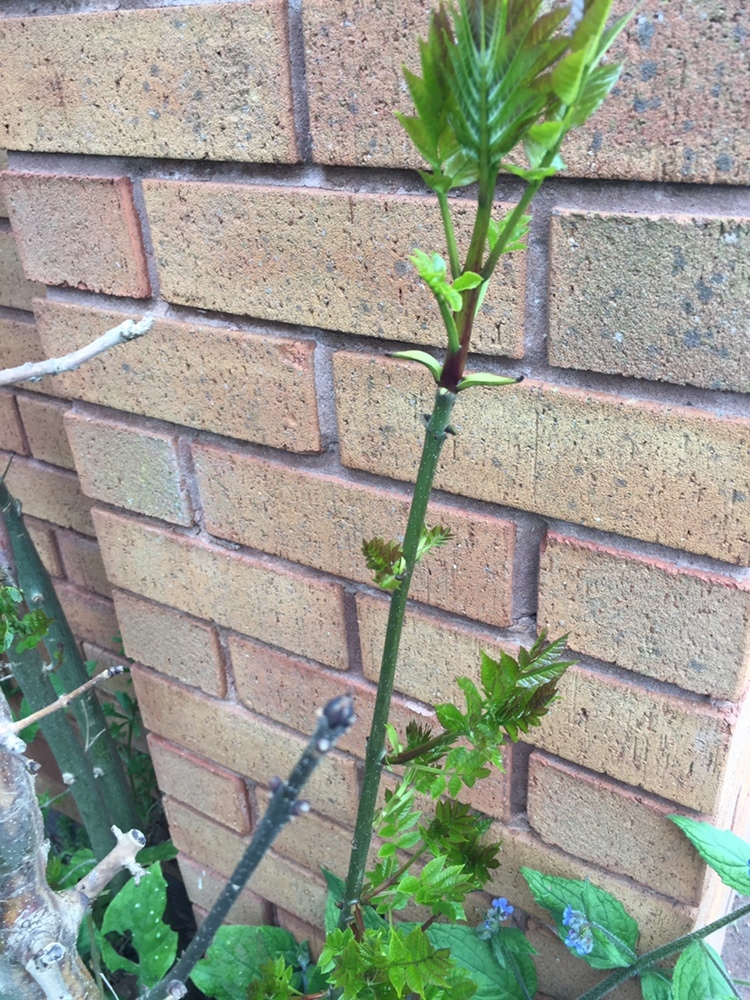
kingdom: Plantae
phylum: Tracheophyta
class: Magnoliopsida
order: Lamiales
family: Oleaceae
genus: Fraxinus
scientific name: Fraxinus excelsior
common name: European ash
